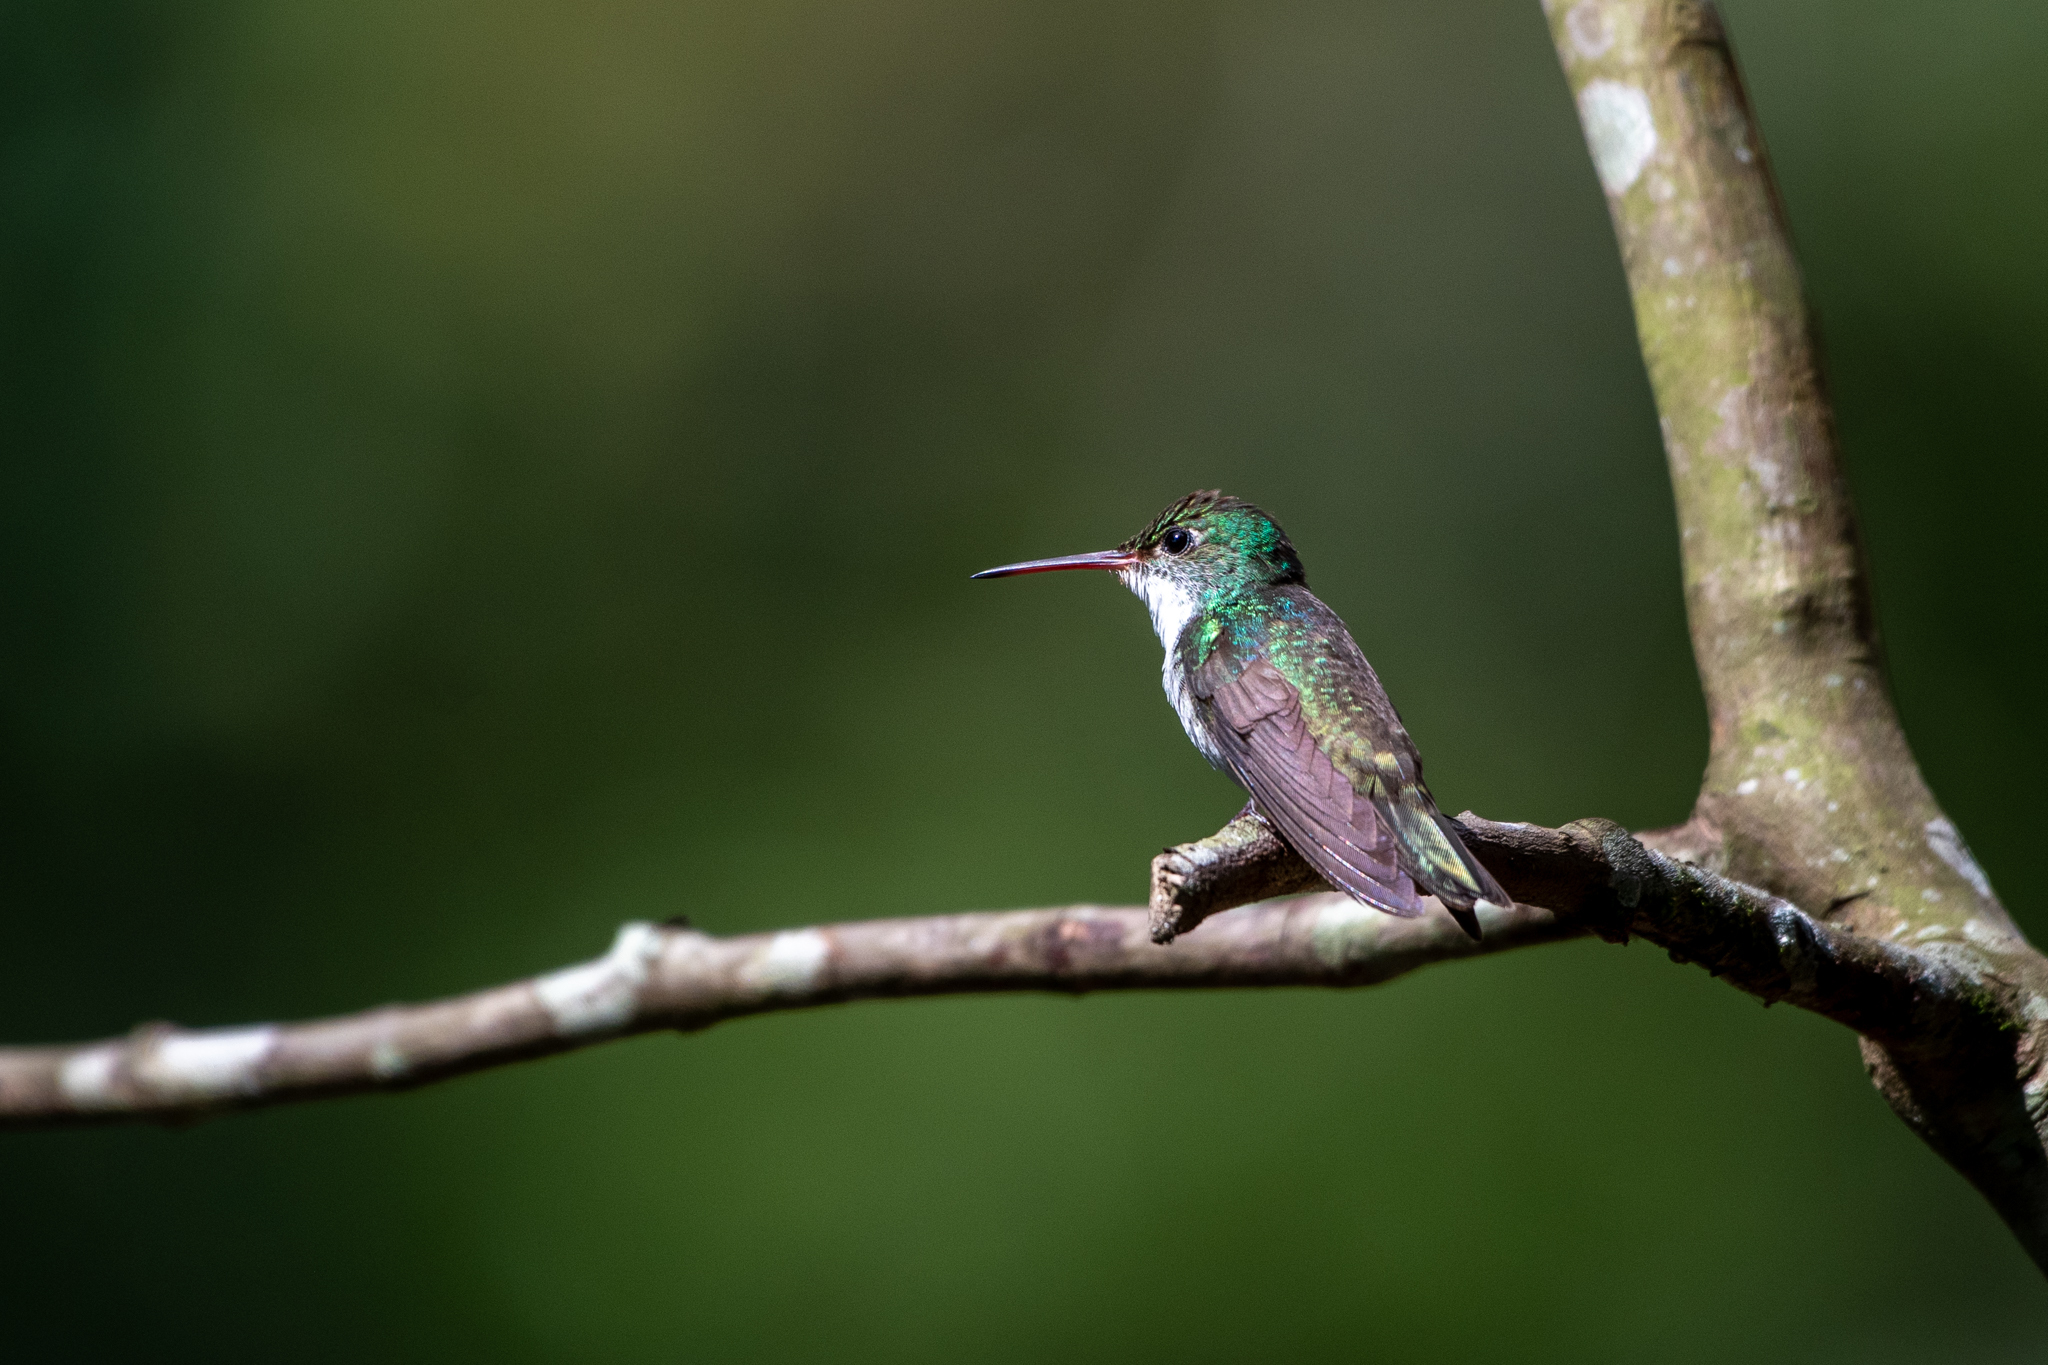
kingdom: Animalia
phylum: Chordata
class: Aves
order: Apodiformes
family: Trochilidae
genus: Chlorestes
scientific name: Chlorestes candida
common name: White-bellied emerald
